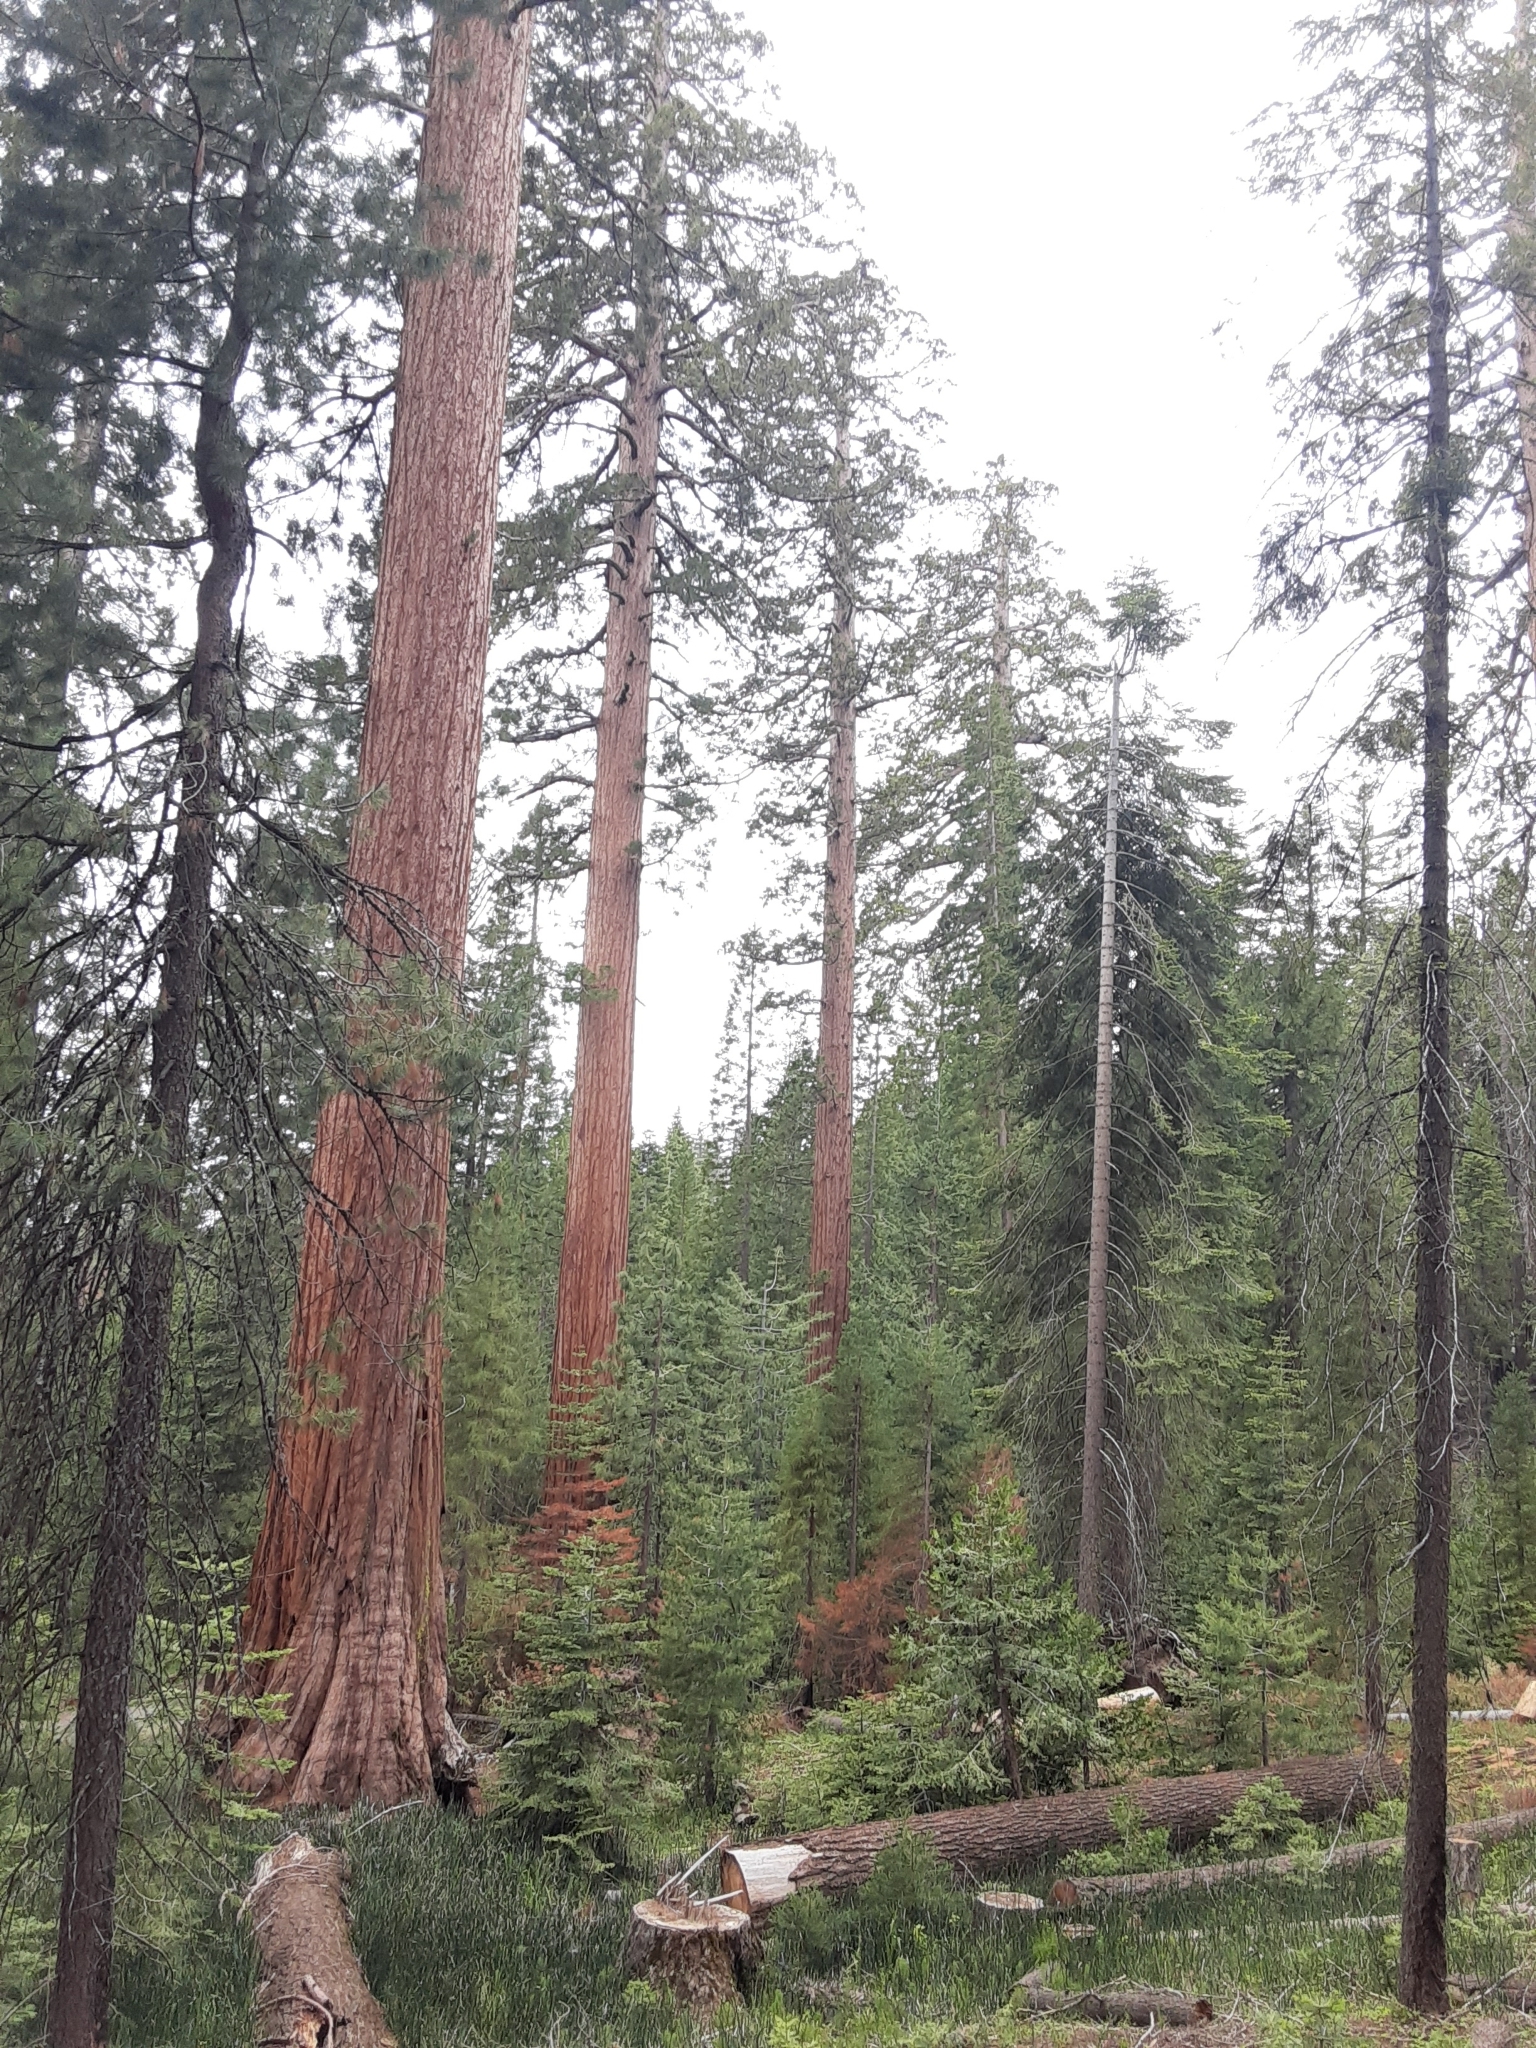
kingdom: Plantae
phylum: Tracheophyta
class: Pinopsida
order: Pinales
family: Cupressaceae
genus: Sequoiadendron
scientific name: Sequoiadendron giganteum
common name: Wellingtonia
